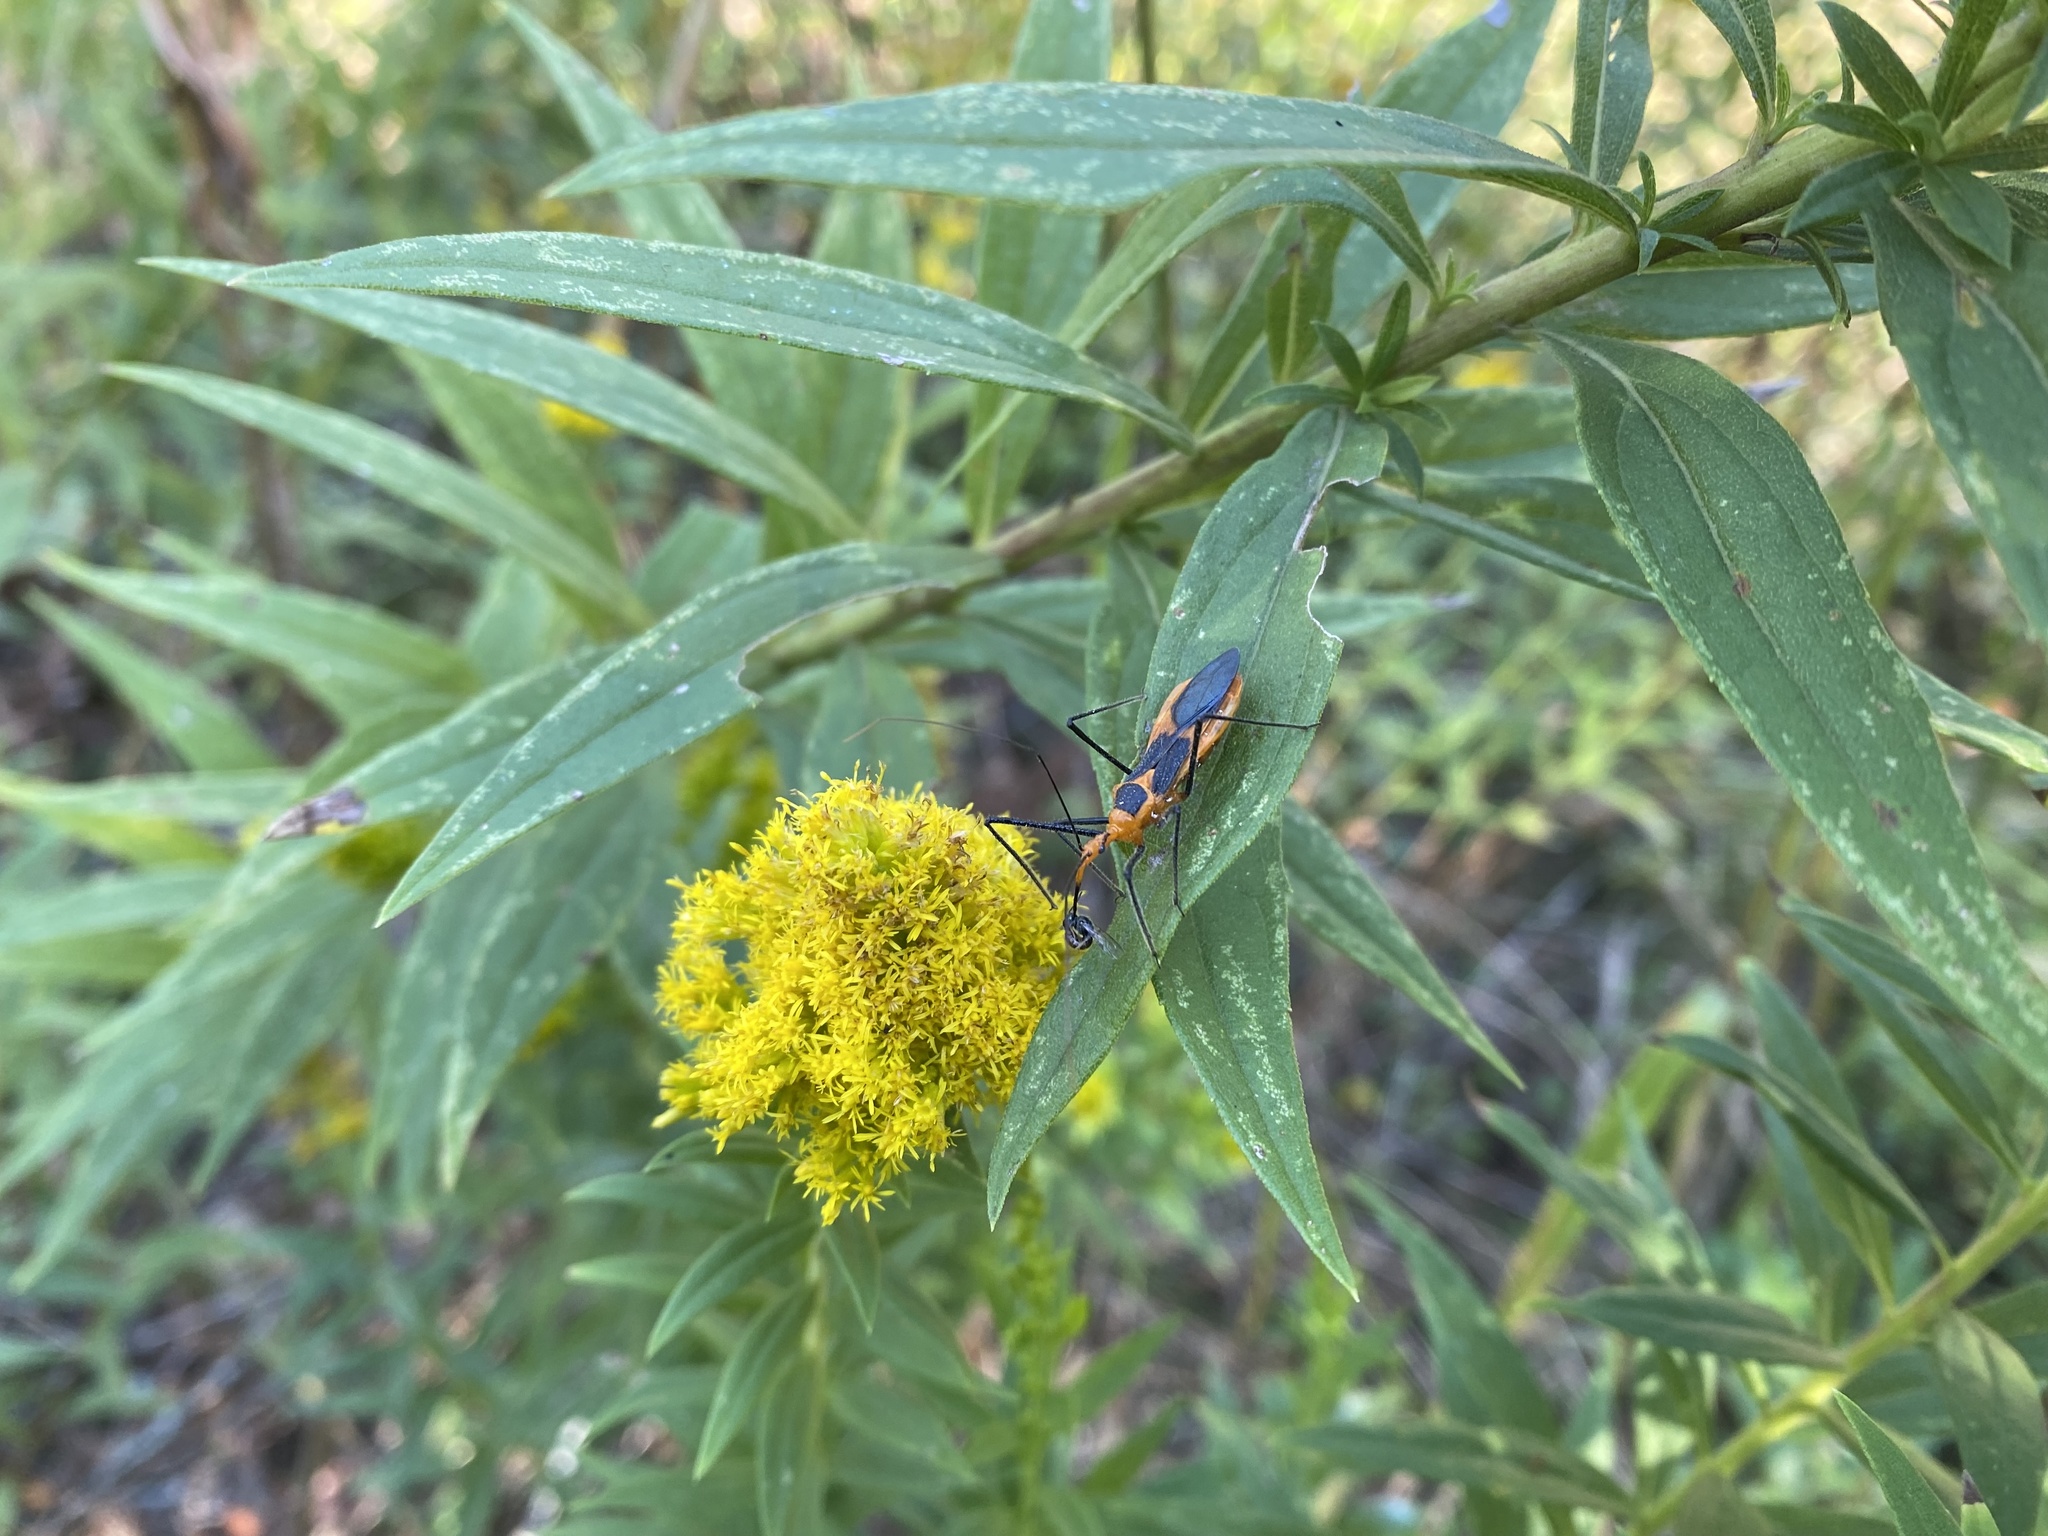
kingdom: Animalia
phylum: Arthropoda
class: Insecta
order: Hemiptera
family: Reduviidae
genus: Zelus
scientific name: Zelus longipes
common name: Milkweed assassin bug
